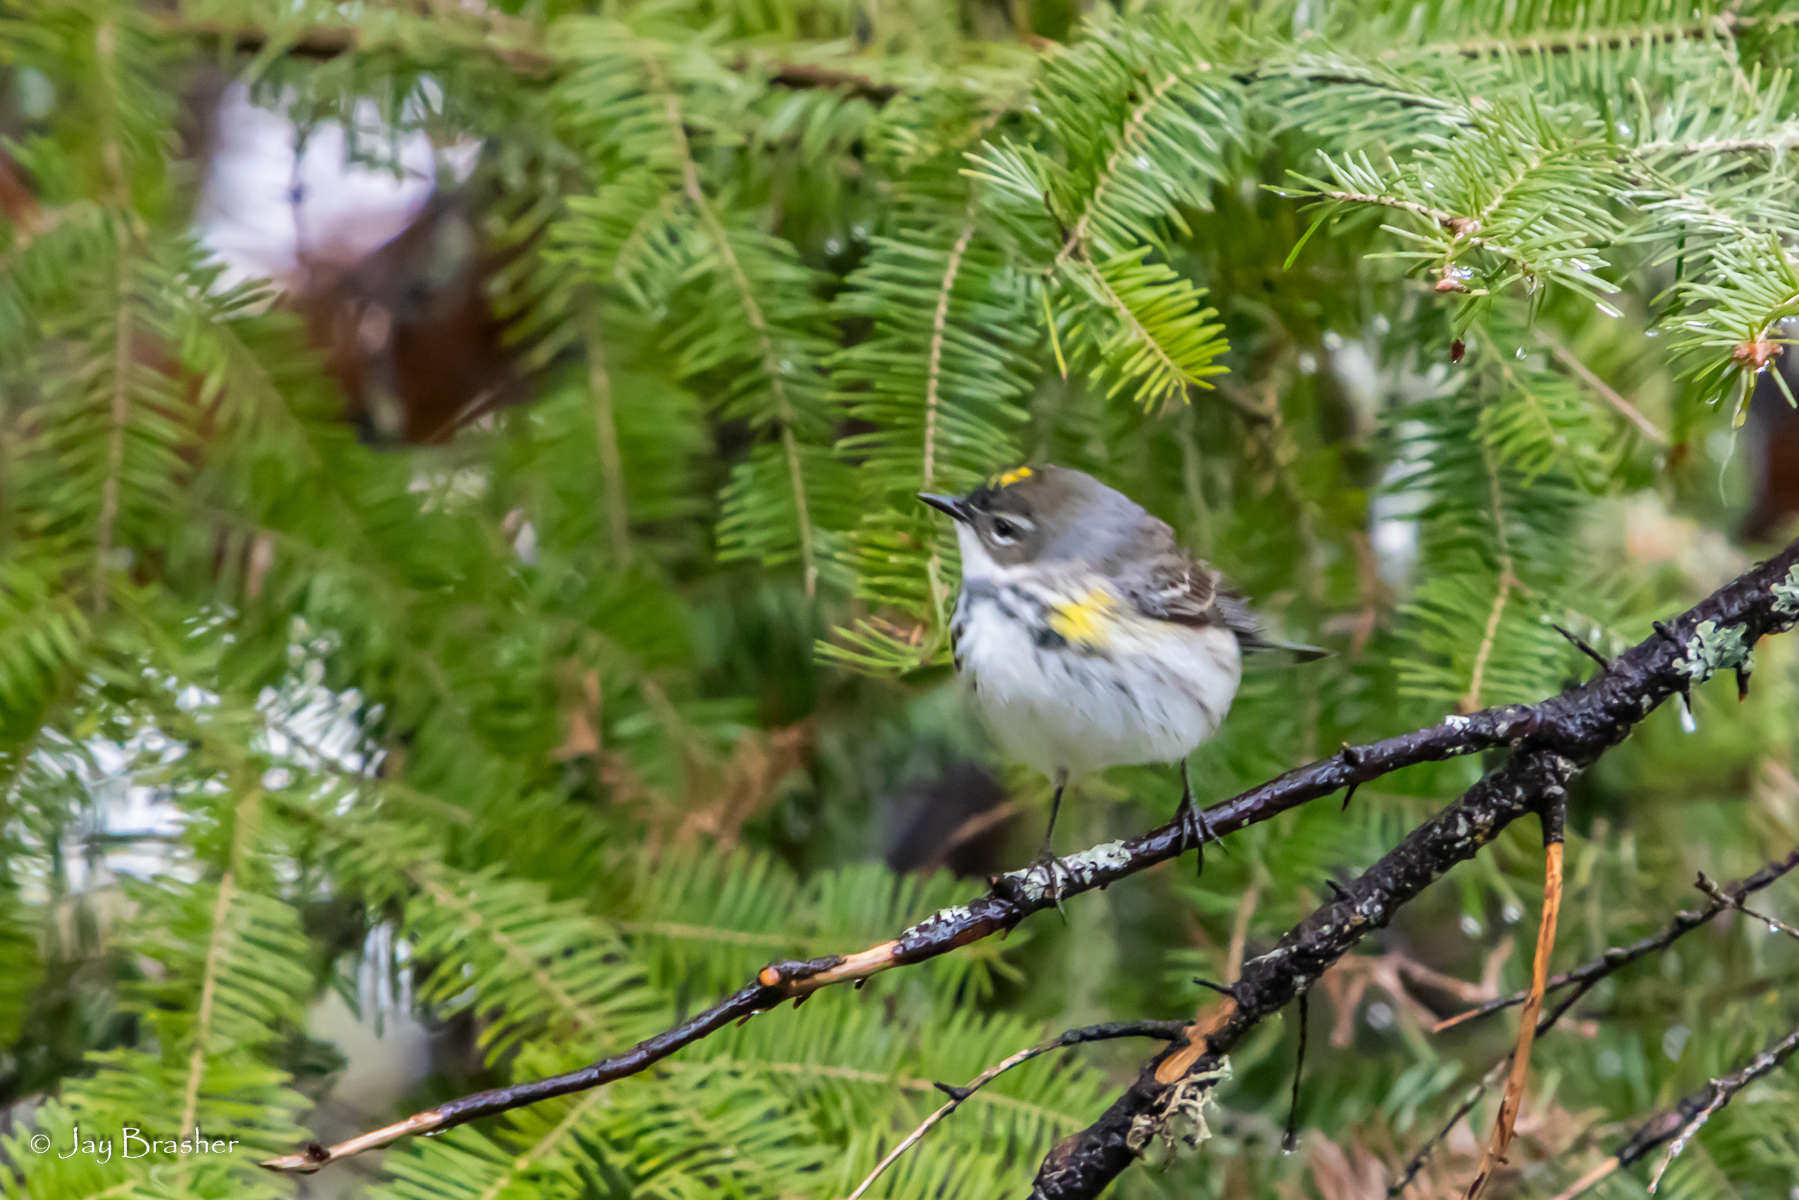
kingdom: Animalia
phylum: Chordata
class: Aves
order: Passeriformes
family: Parulidae
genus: Setophaga
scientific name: Setophaga coronata
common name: Myrtle warbler
